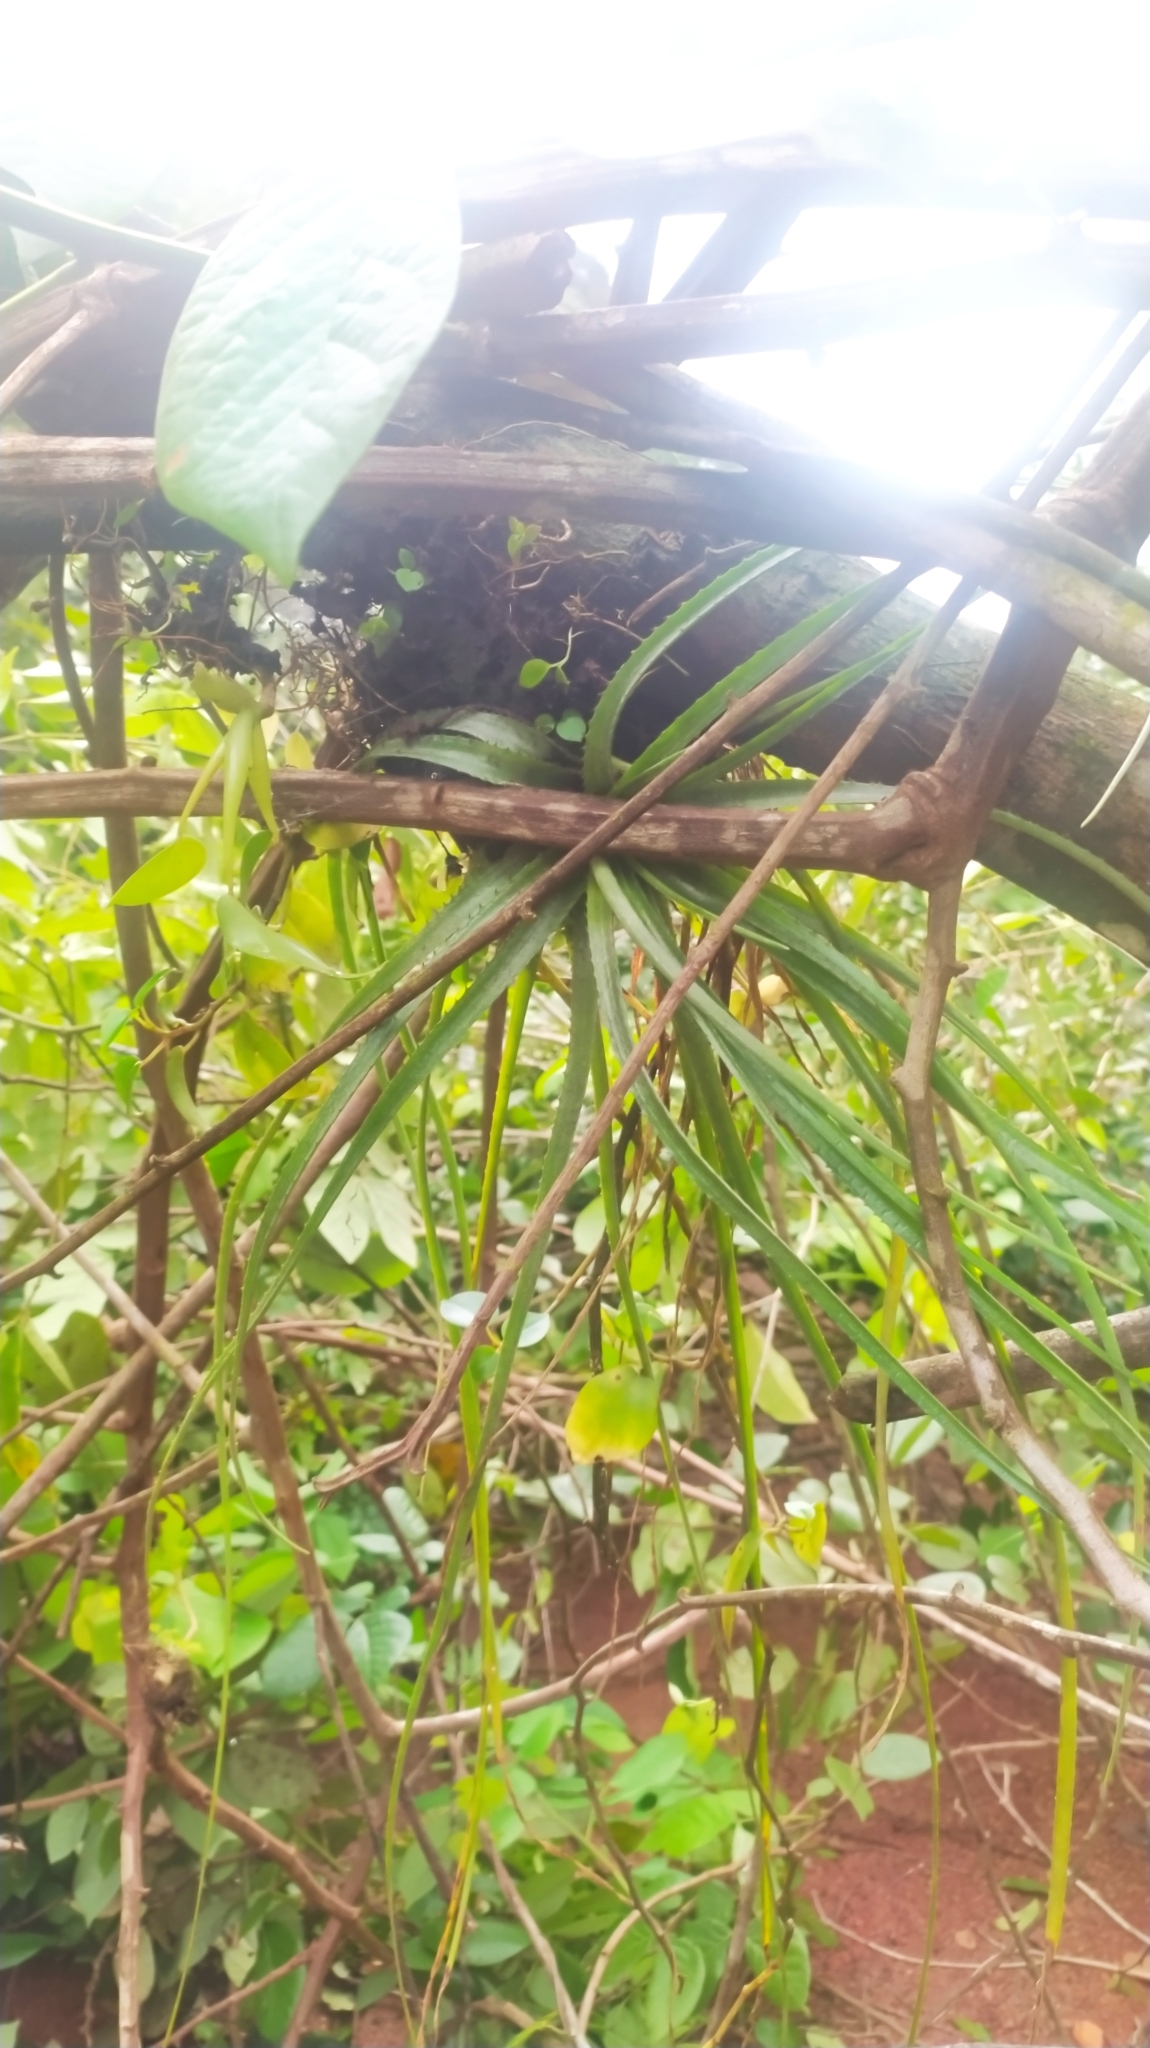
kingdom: Plantae
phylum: Tracheophyta
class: Liliopsida
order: Poales
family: Bromeliaceae
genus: Aechmea
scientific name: Aechmea longifolia
